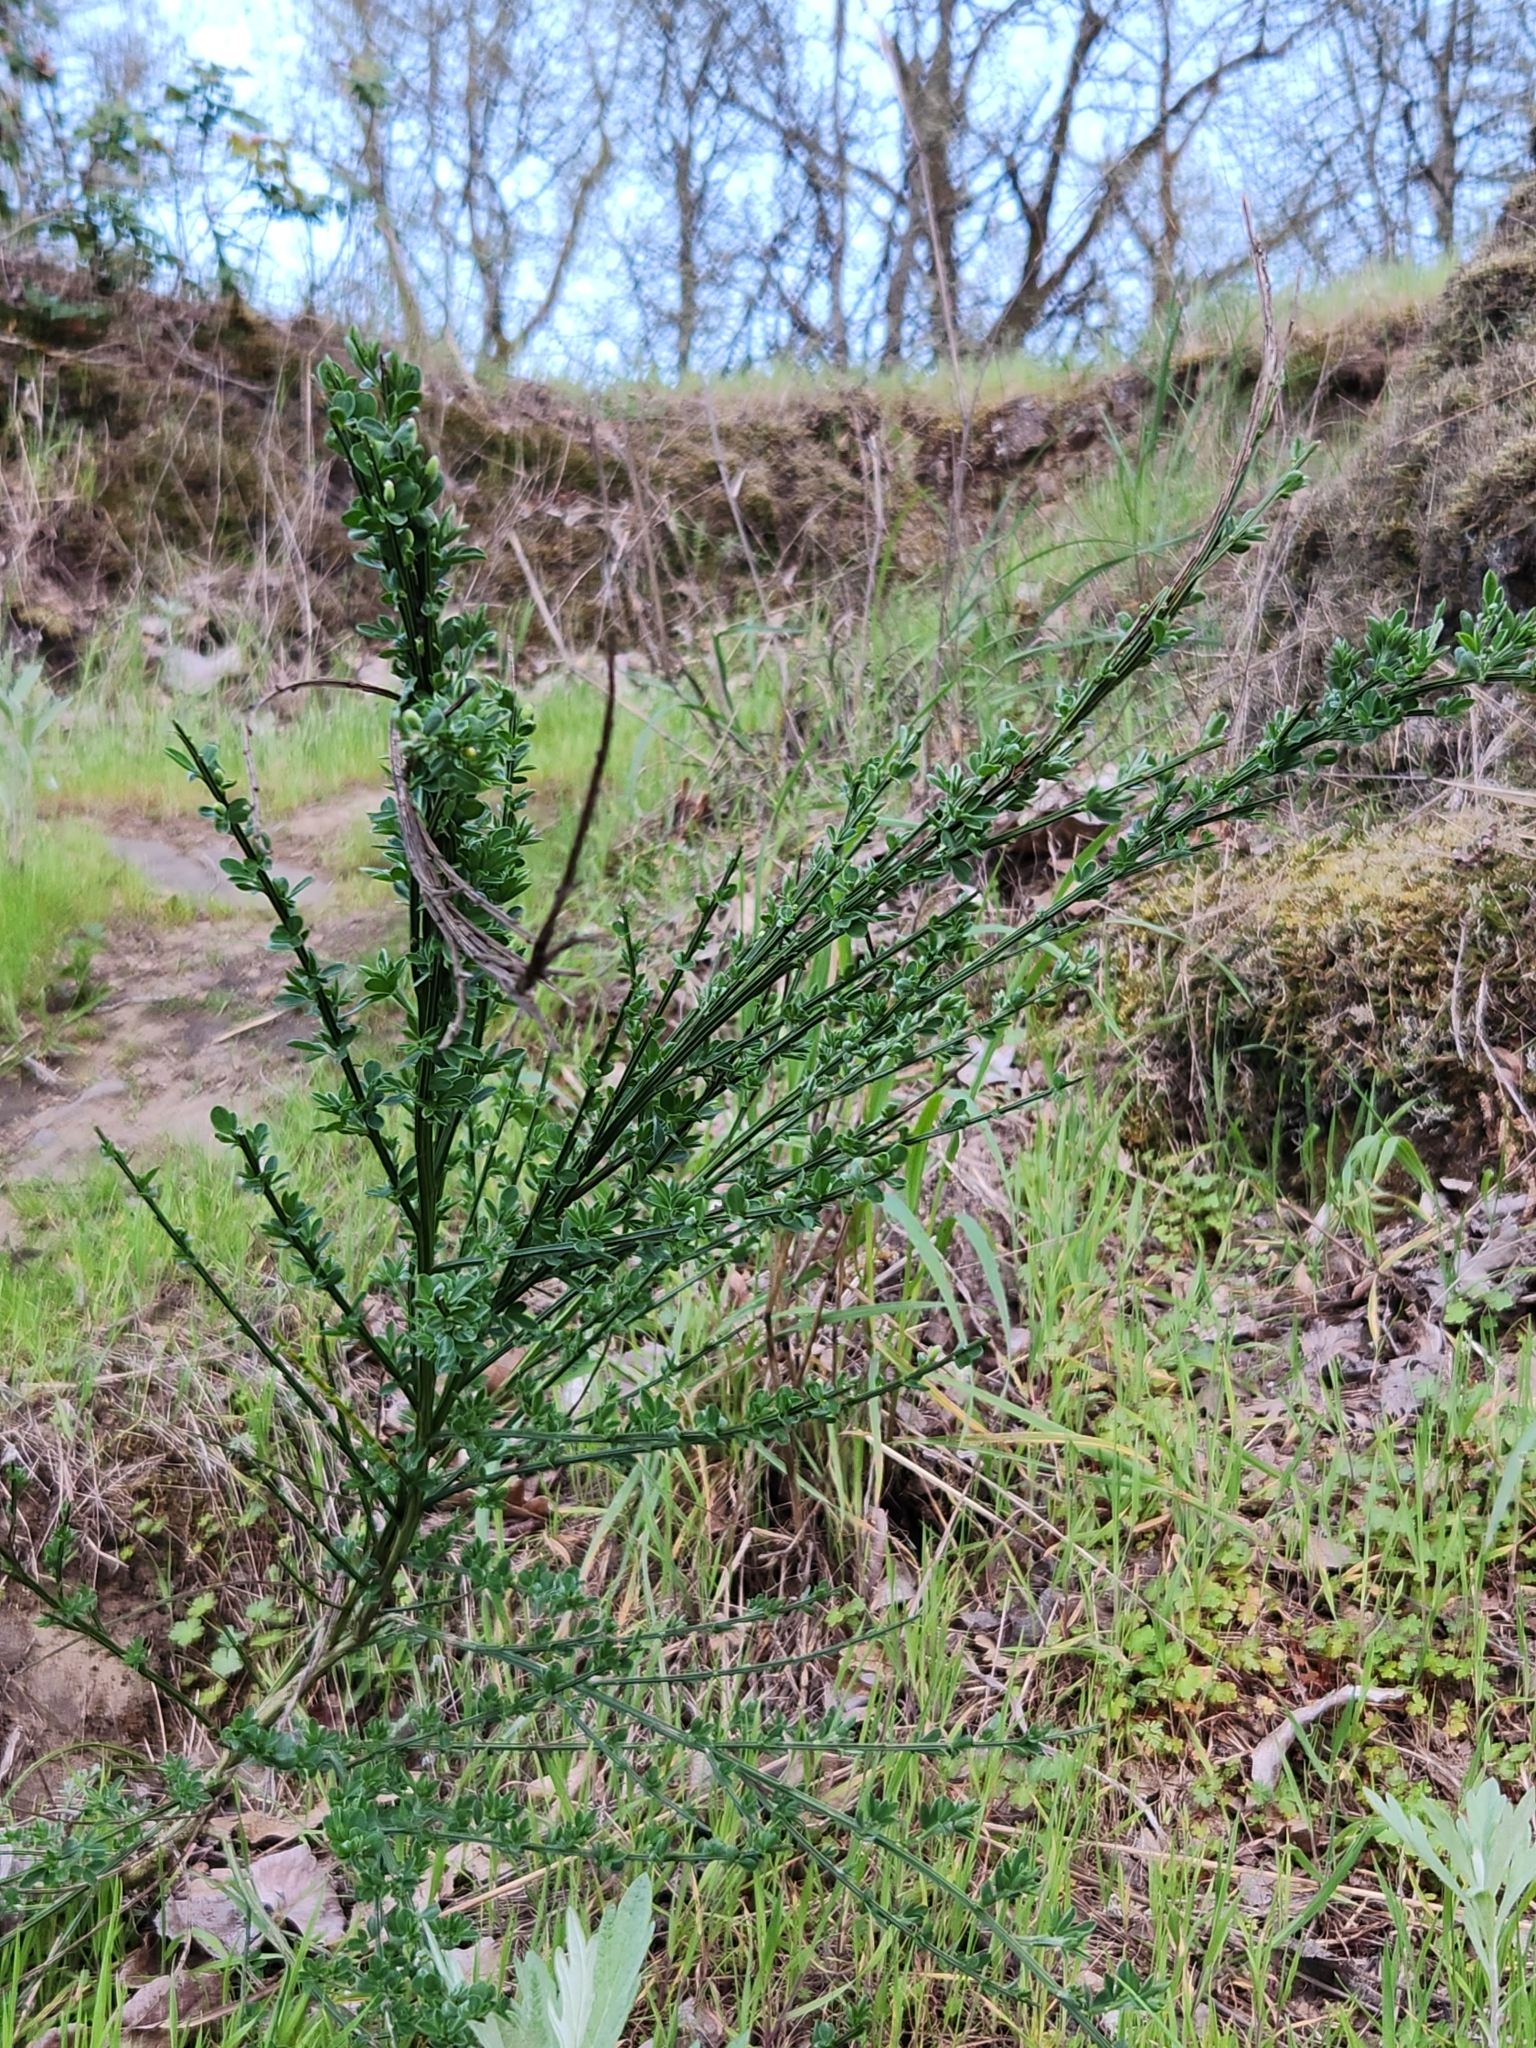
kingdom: Plantae
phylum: Tracheophyta
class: Magnoliopsida
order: Fabales
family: Fabaceae
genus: Cytisus
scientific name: Cytisus scoparius
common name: Scotch broom
